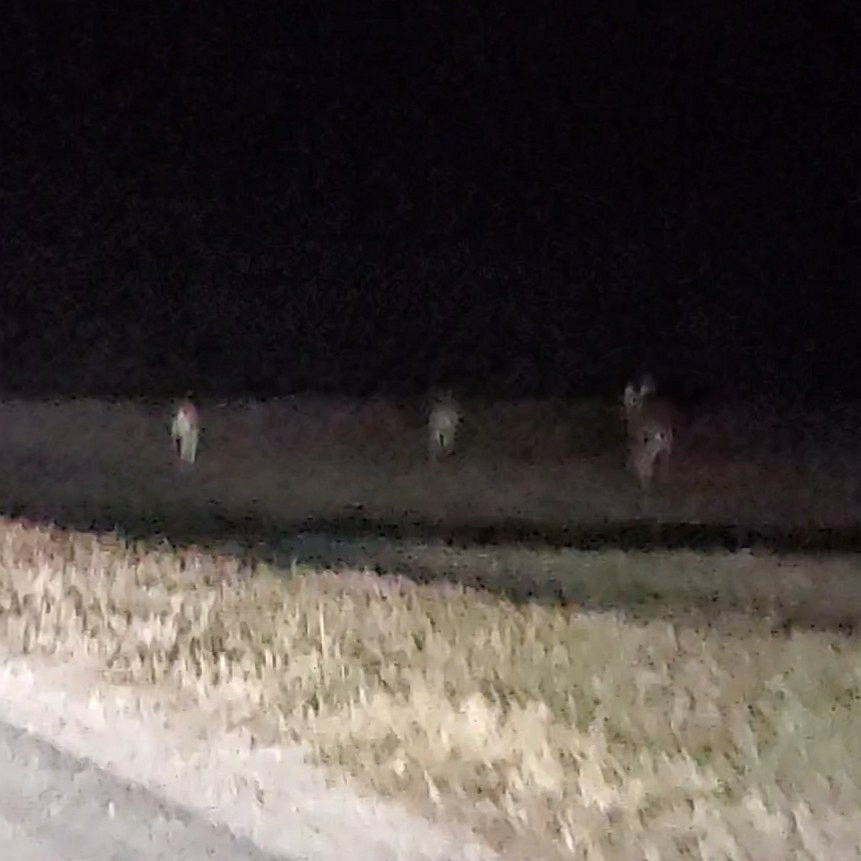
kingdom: Animalia
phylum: Chordata
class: Mammalia
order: Artiodactyla
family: Cervidae
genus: Odocoileus
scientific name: Odocoileus virginianus
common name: White-tailed deer
